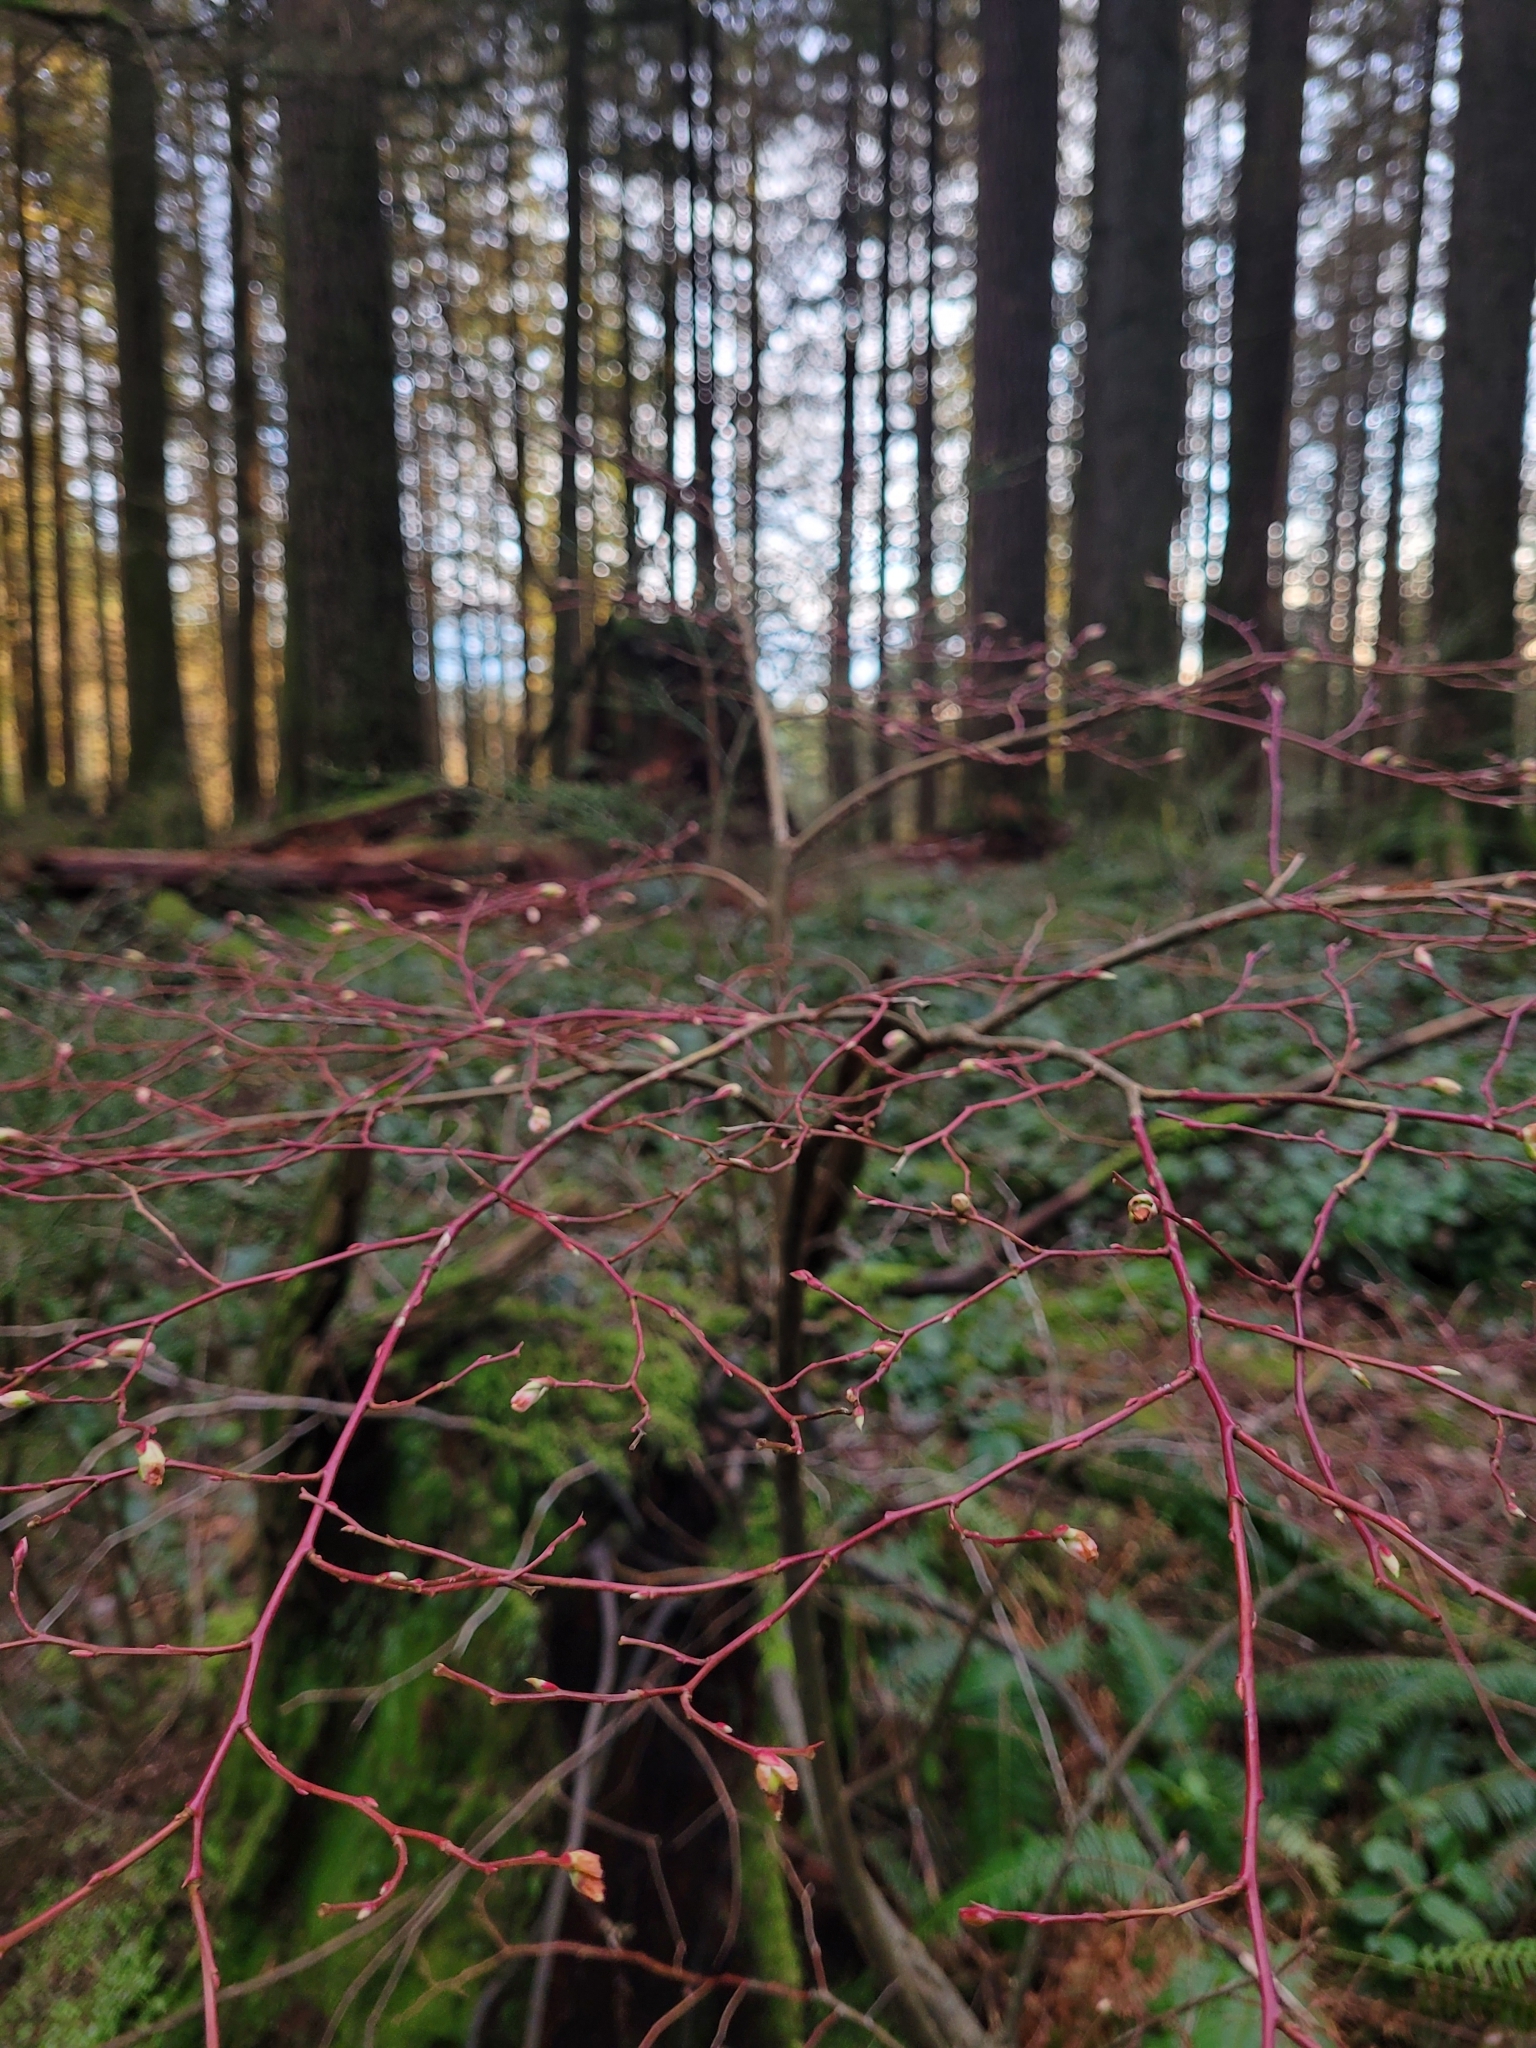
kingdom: Plantae
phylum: Tracheophyta
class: Magnoliopsida
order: Ericales
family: Ericaceae
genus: Vaccinium
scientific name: Vaccinium parvifolium
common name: Red-huckleberry
